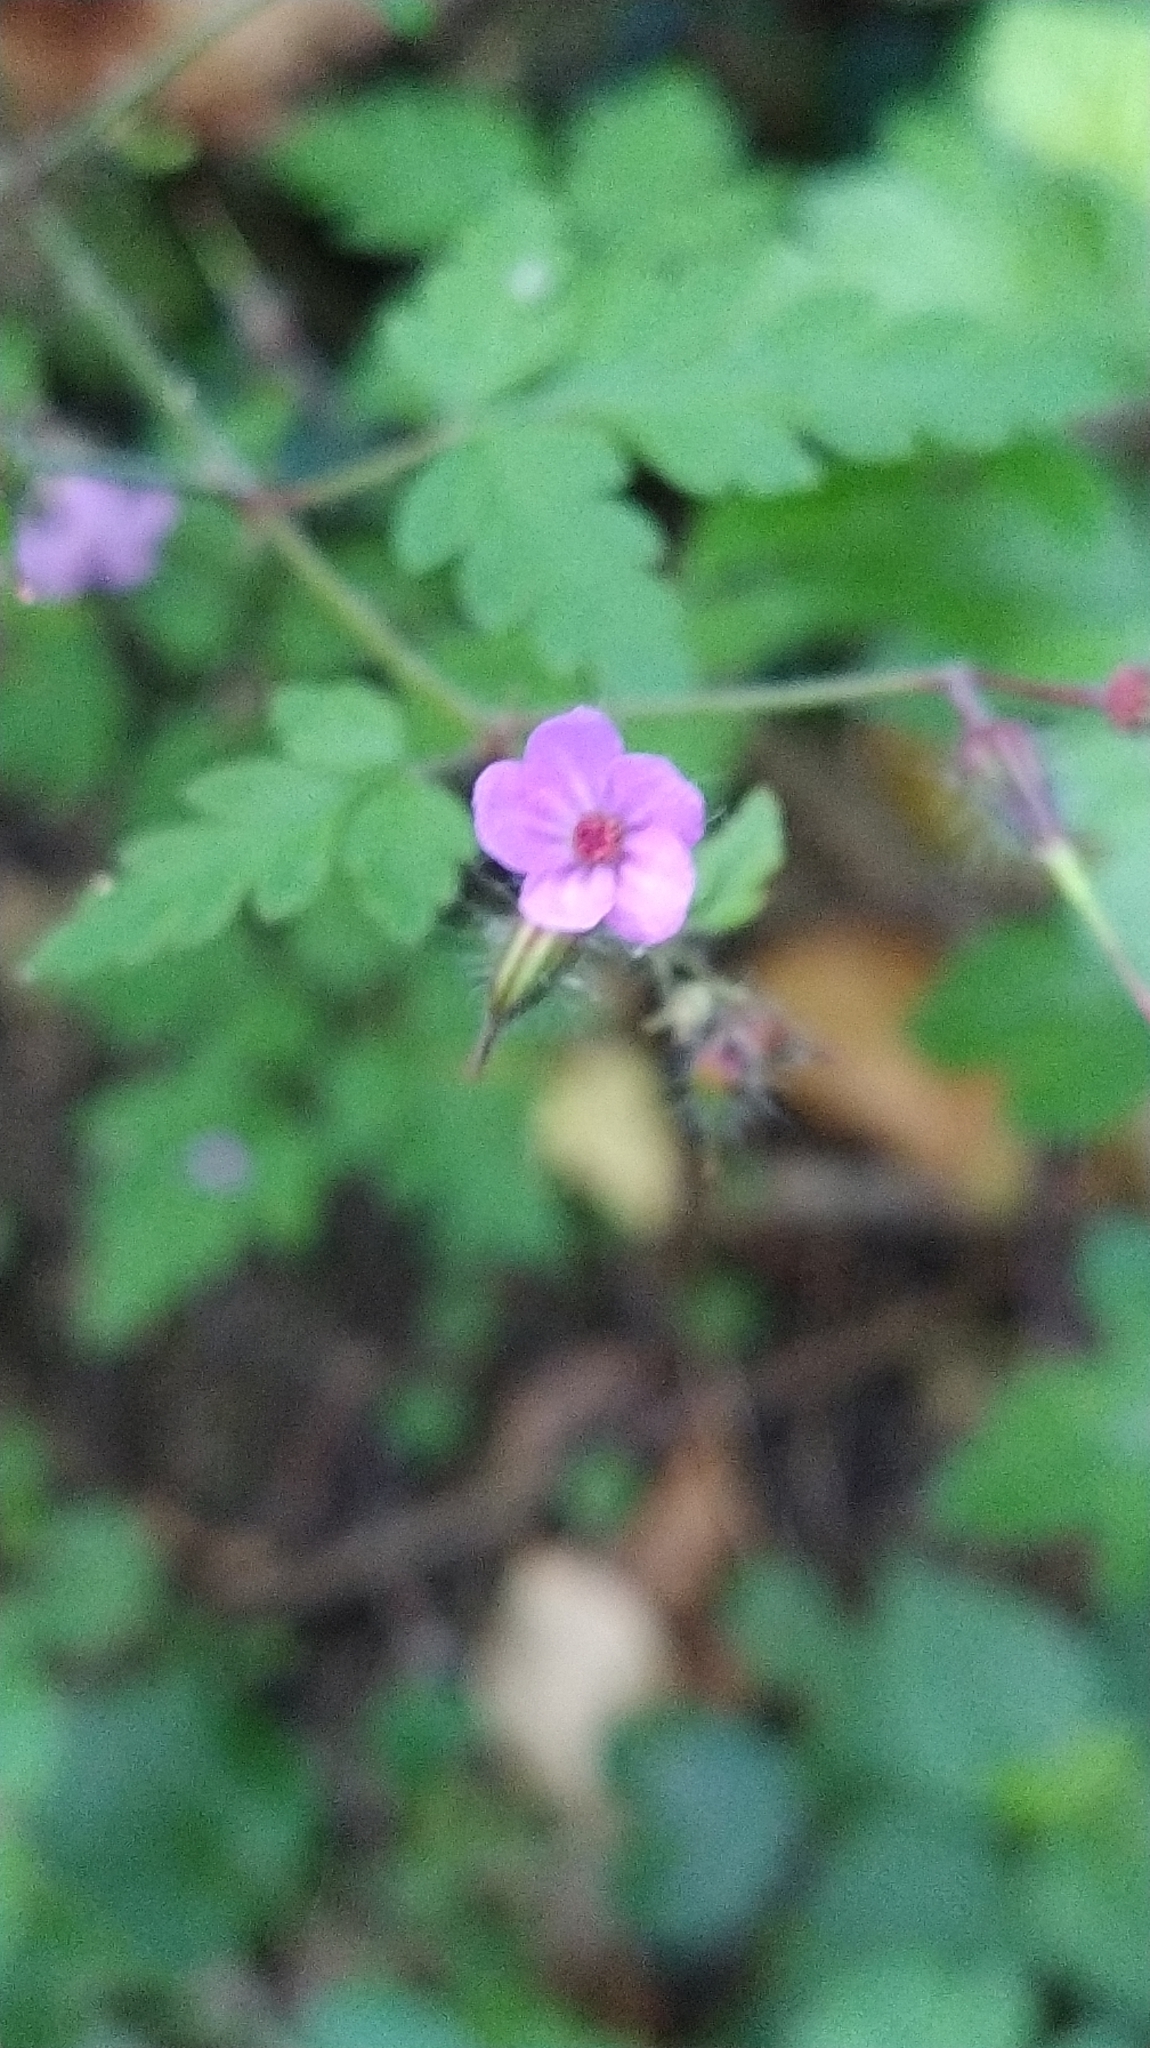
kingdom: Plantae
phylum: Tracheophyta
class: Magnoliopsida
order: Geraniales
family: Geraniaceae
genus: Geranium
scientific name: Geranium robertianum
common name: Herb-robert
